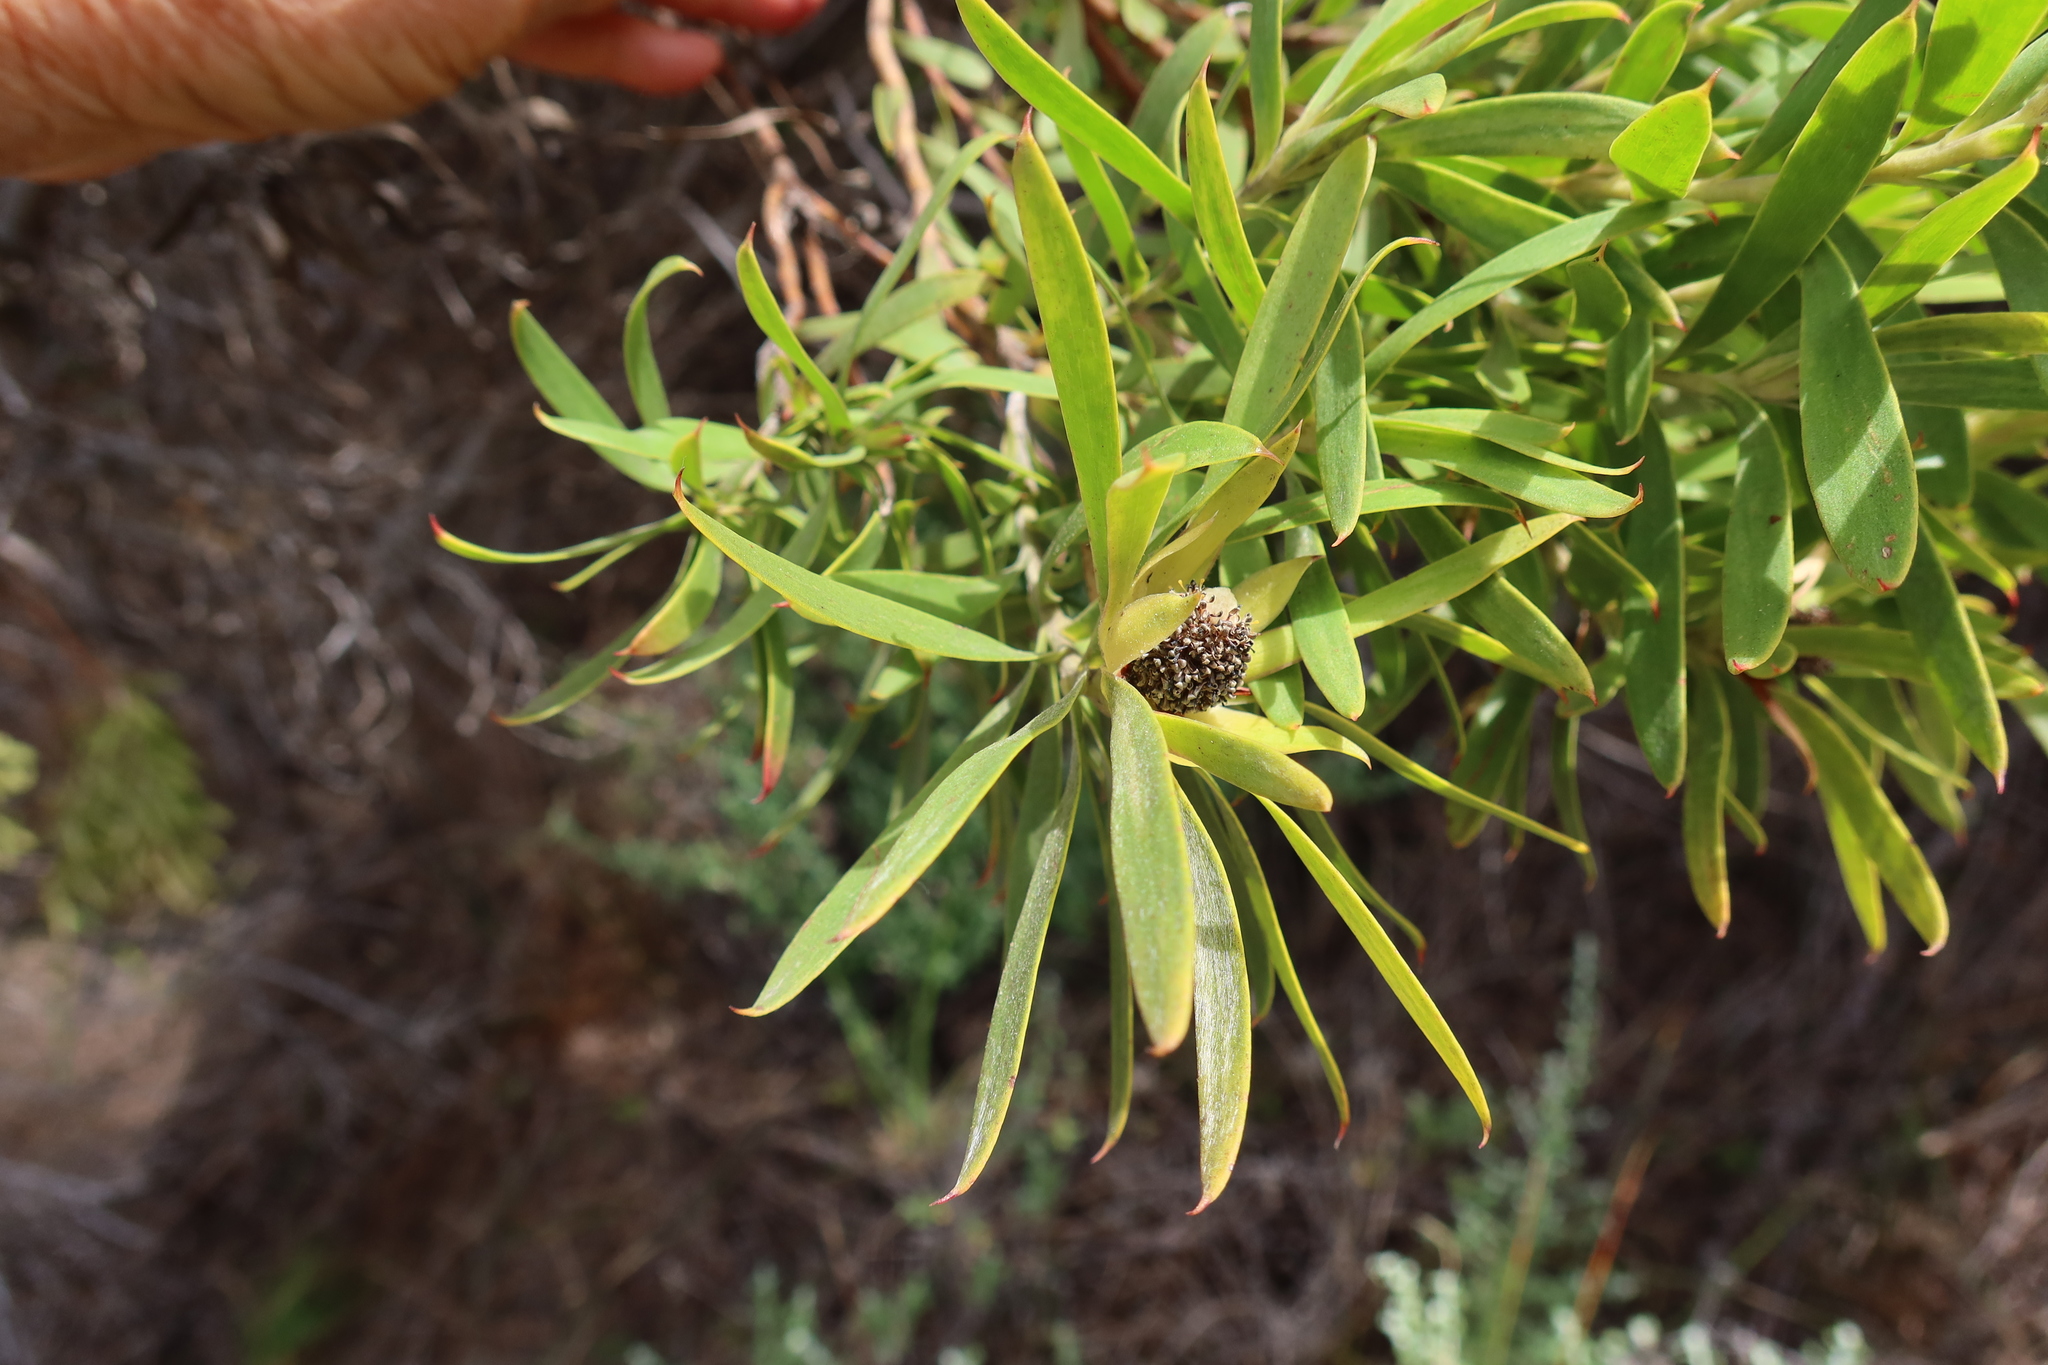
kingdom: Plantae
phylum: Tracheophyta
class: Magnoliopsida
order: Proteales
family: Proteaceae
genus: Leucadendron
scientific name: Leucadendron coniferum
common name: Dune conebush
